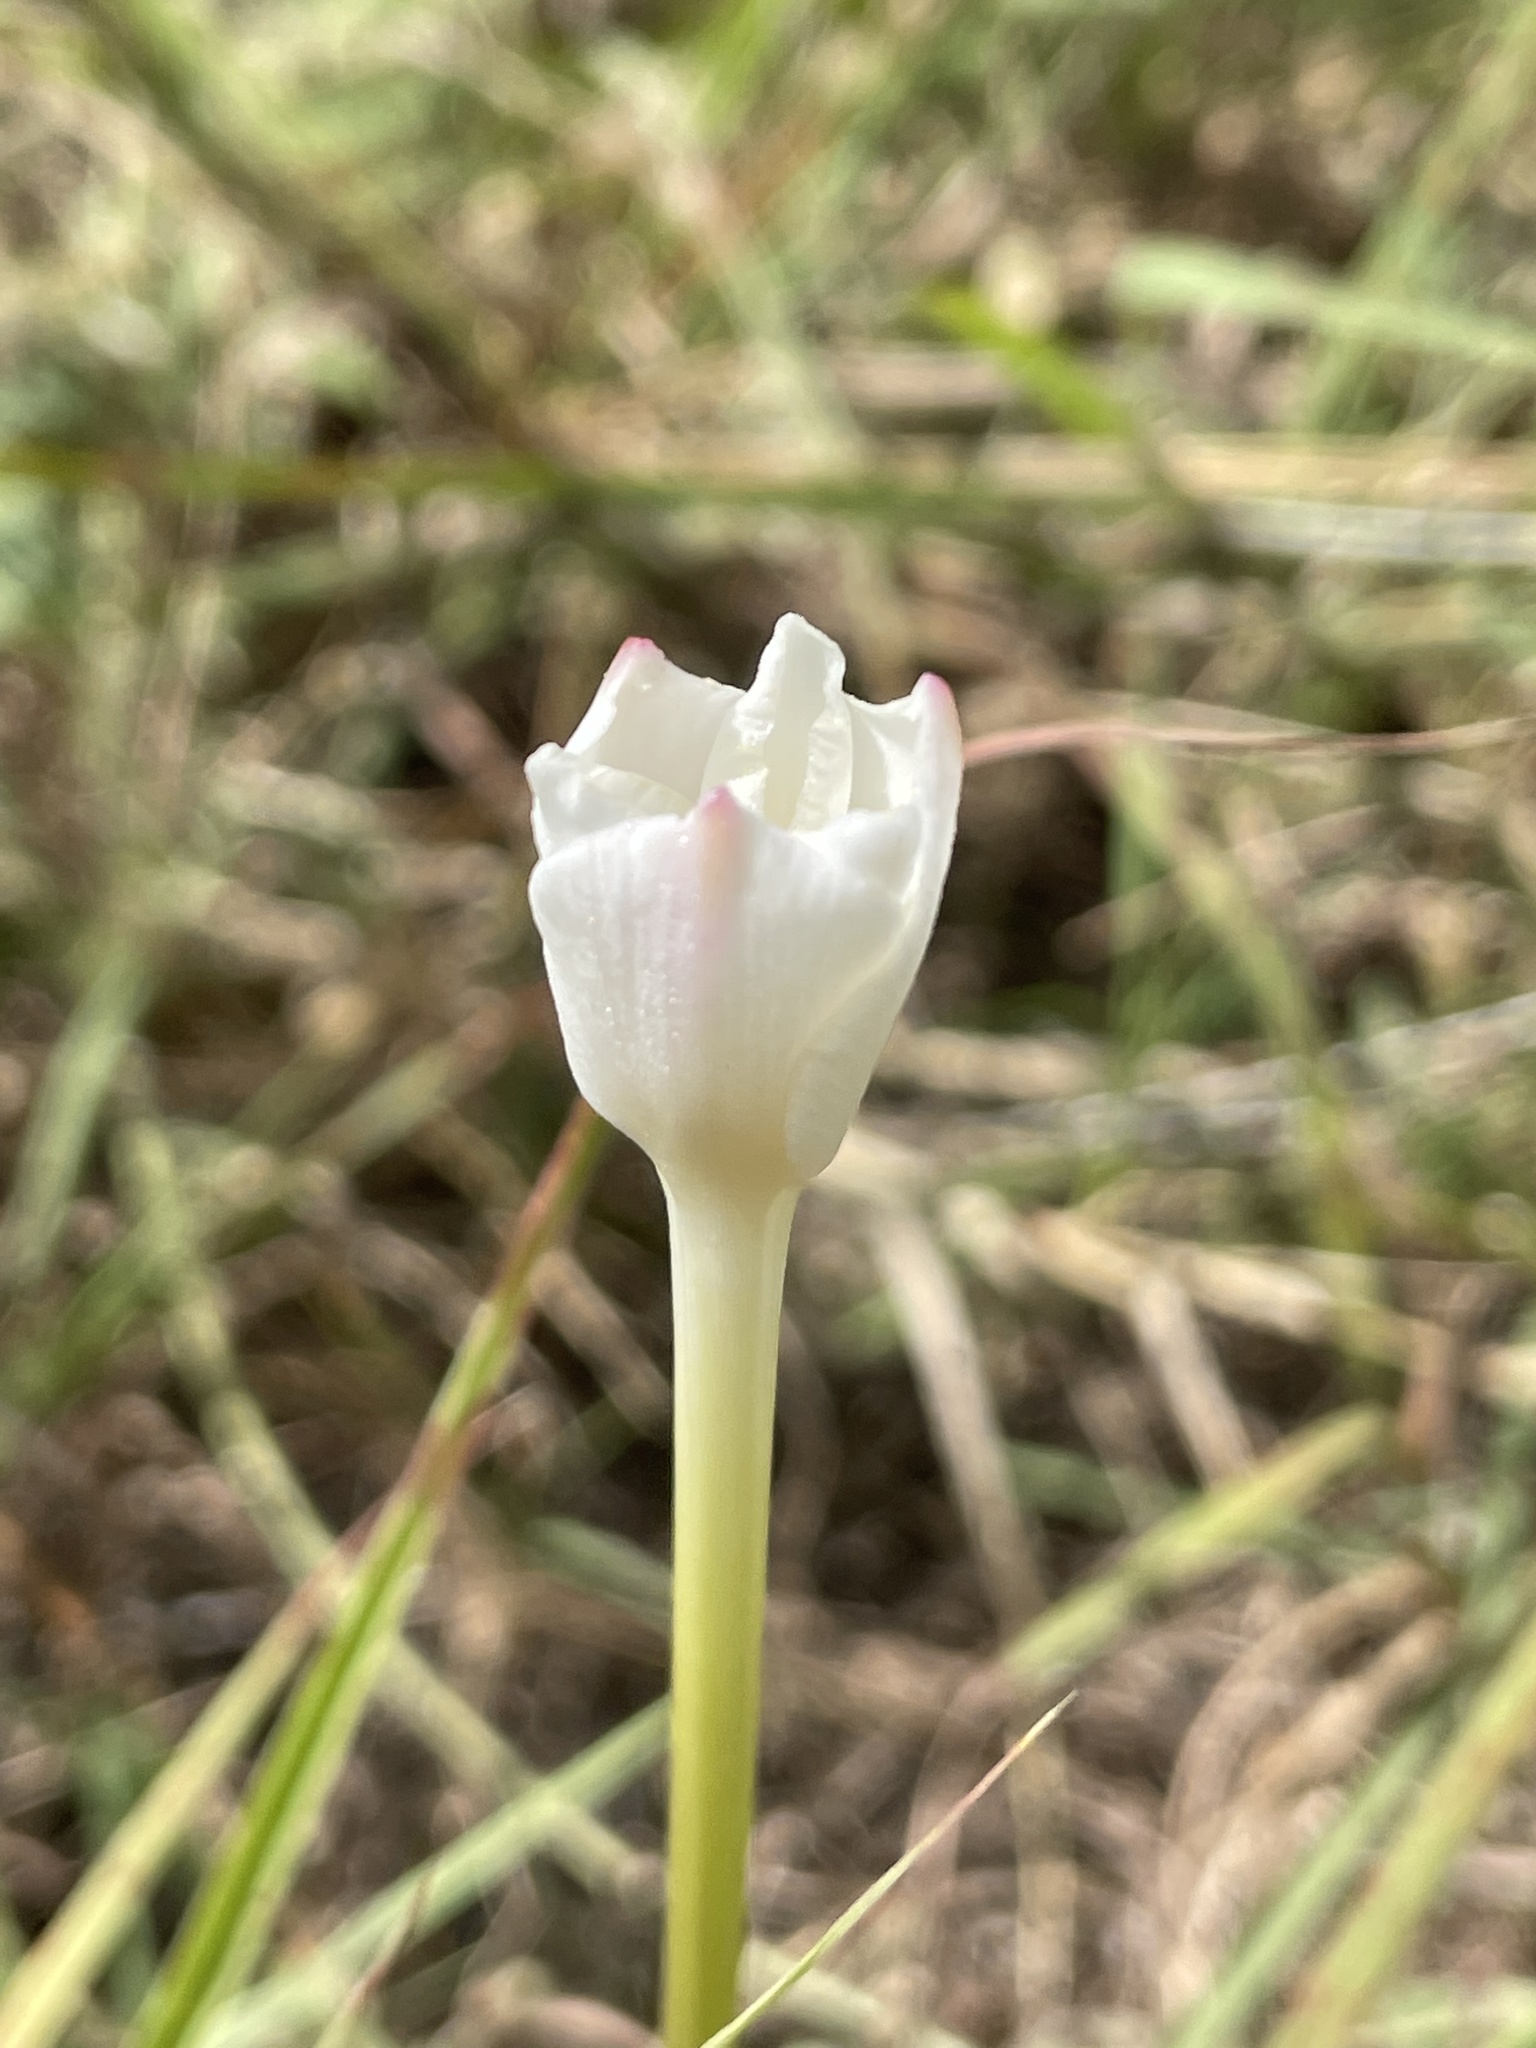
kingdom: Plantae
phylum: Tracheophyta
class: Liliopsida
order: Asparagales
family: Amaryllidaceae
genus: Zephyranthes
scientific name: Zephyranthes
